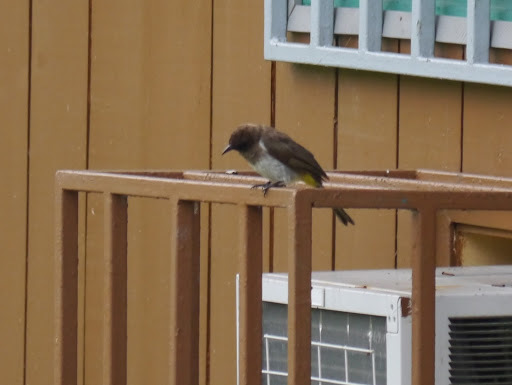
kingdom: Animalia
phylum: Chordata
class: Aves
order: Passeriformes
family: Pycnonotidae
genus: Pycnonotus
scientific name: Pycnonotus barbatus
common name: Common bulbul
